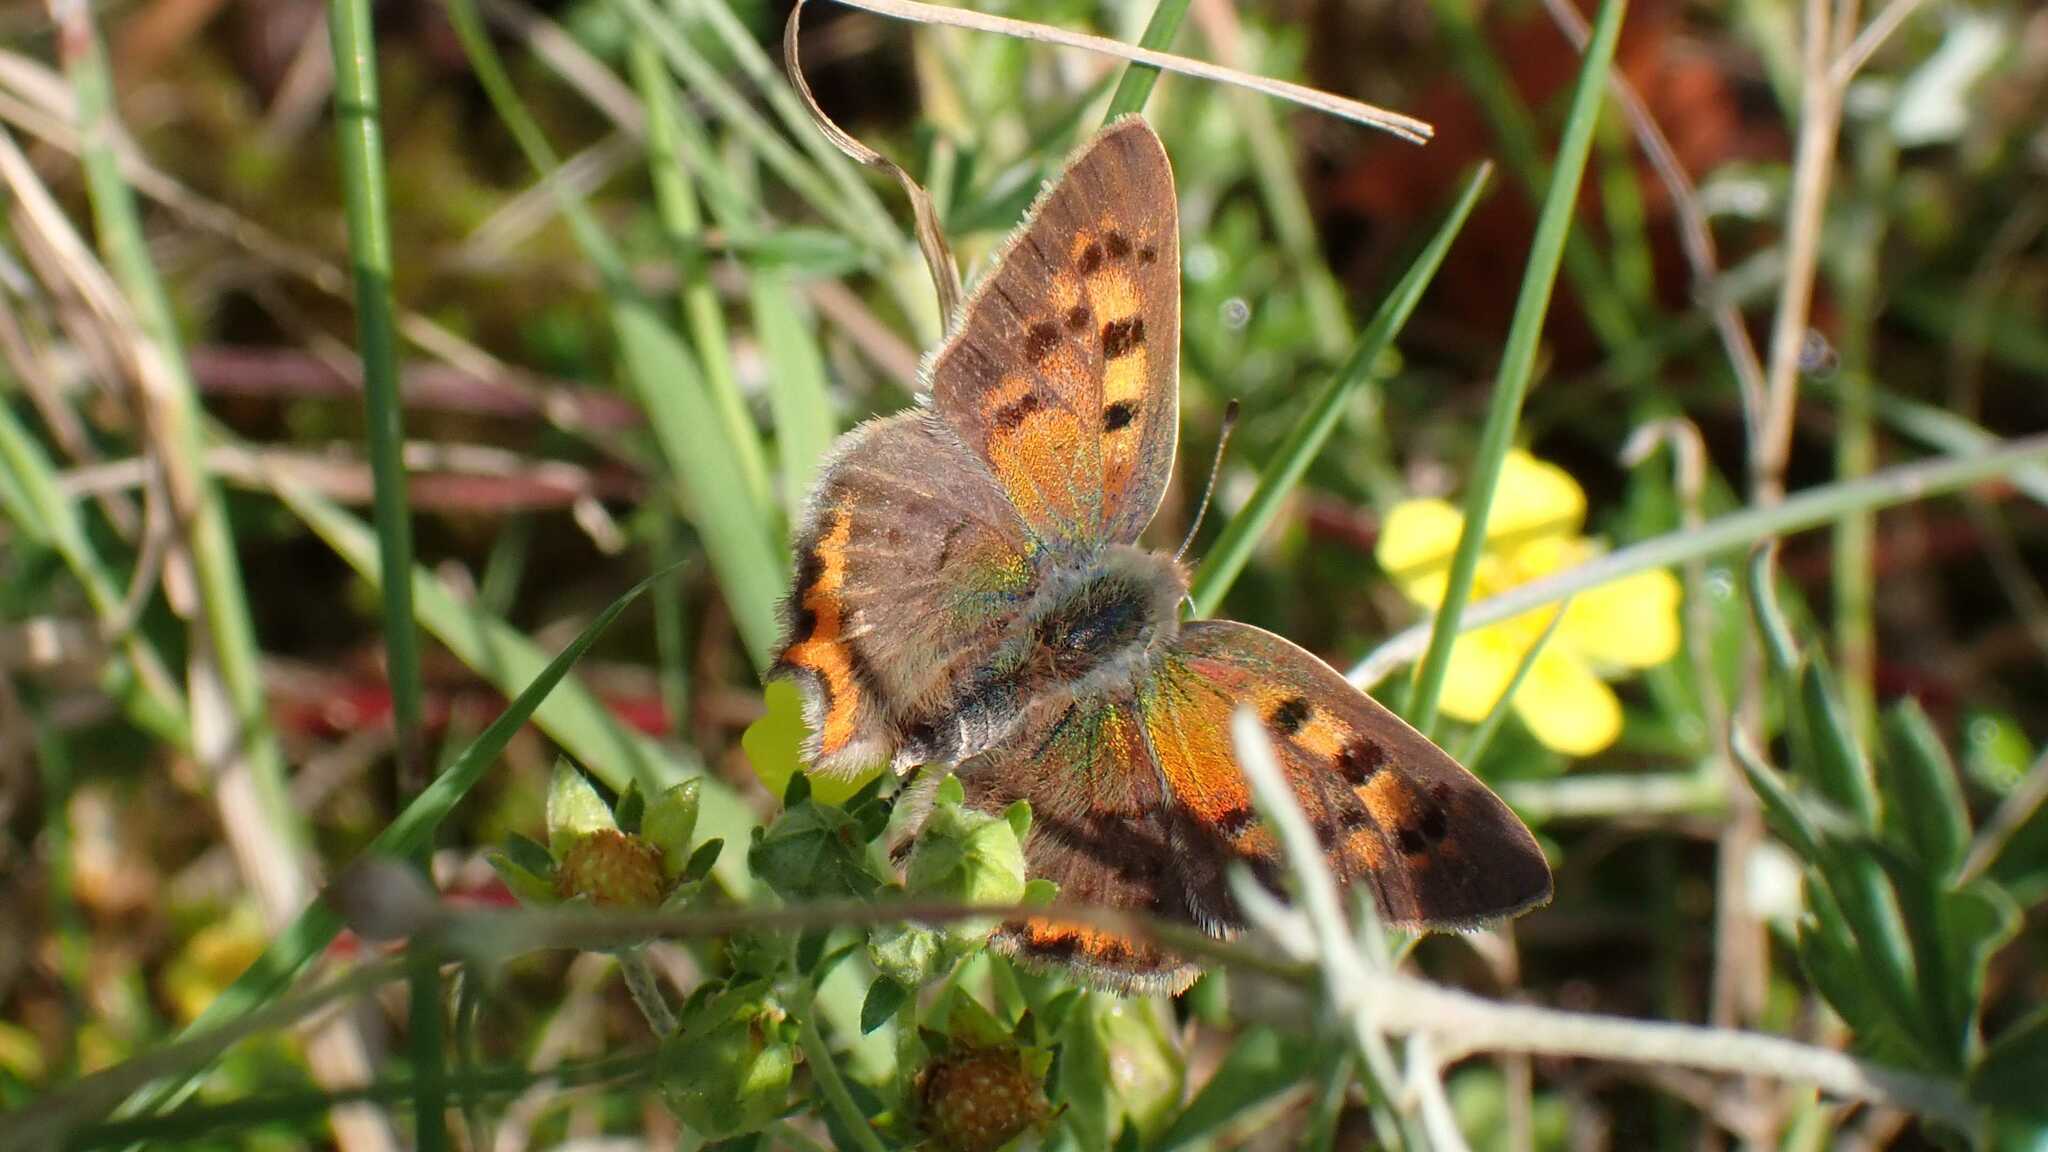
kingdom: Animalia
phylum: Arthropoda
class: Insecta
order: Lepidoptera
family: Lycaenidae
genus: Lycaena
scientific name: Lycaena phlaeas
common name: Small copper
